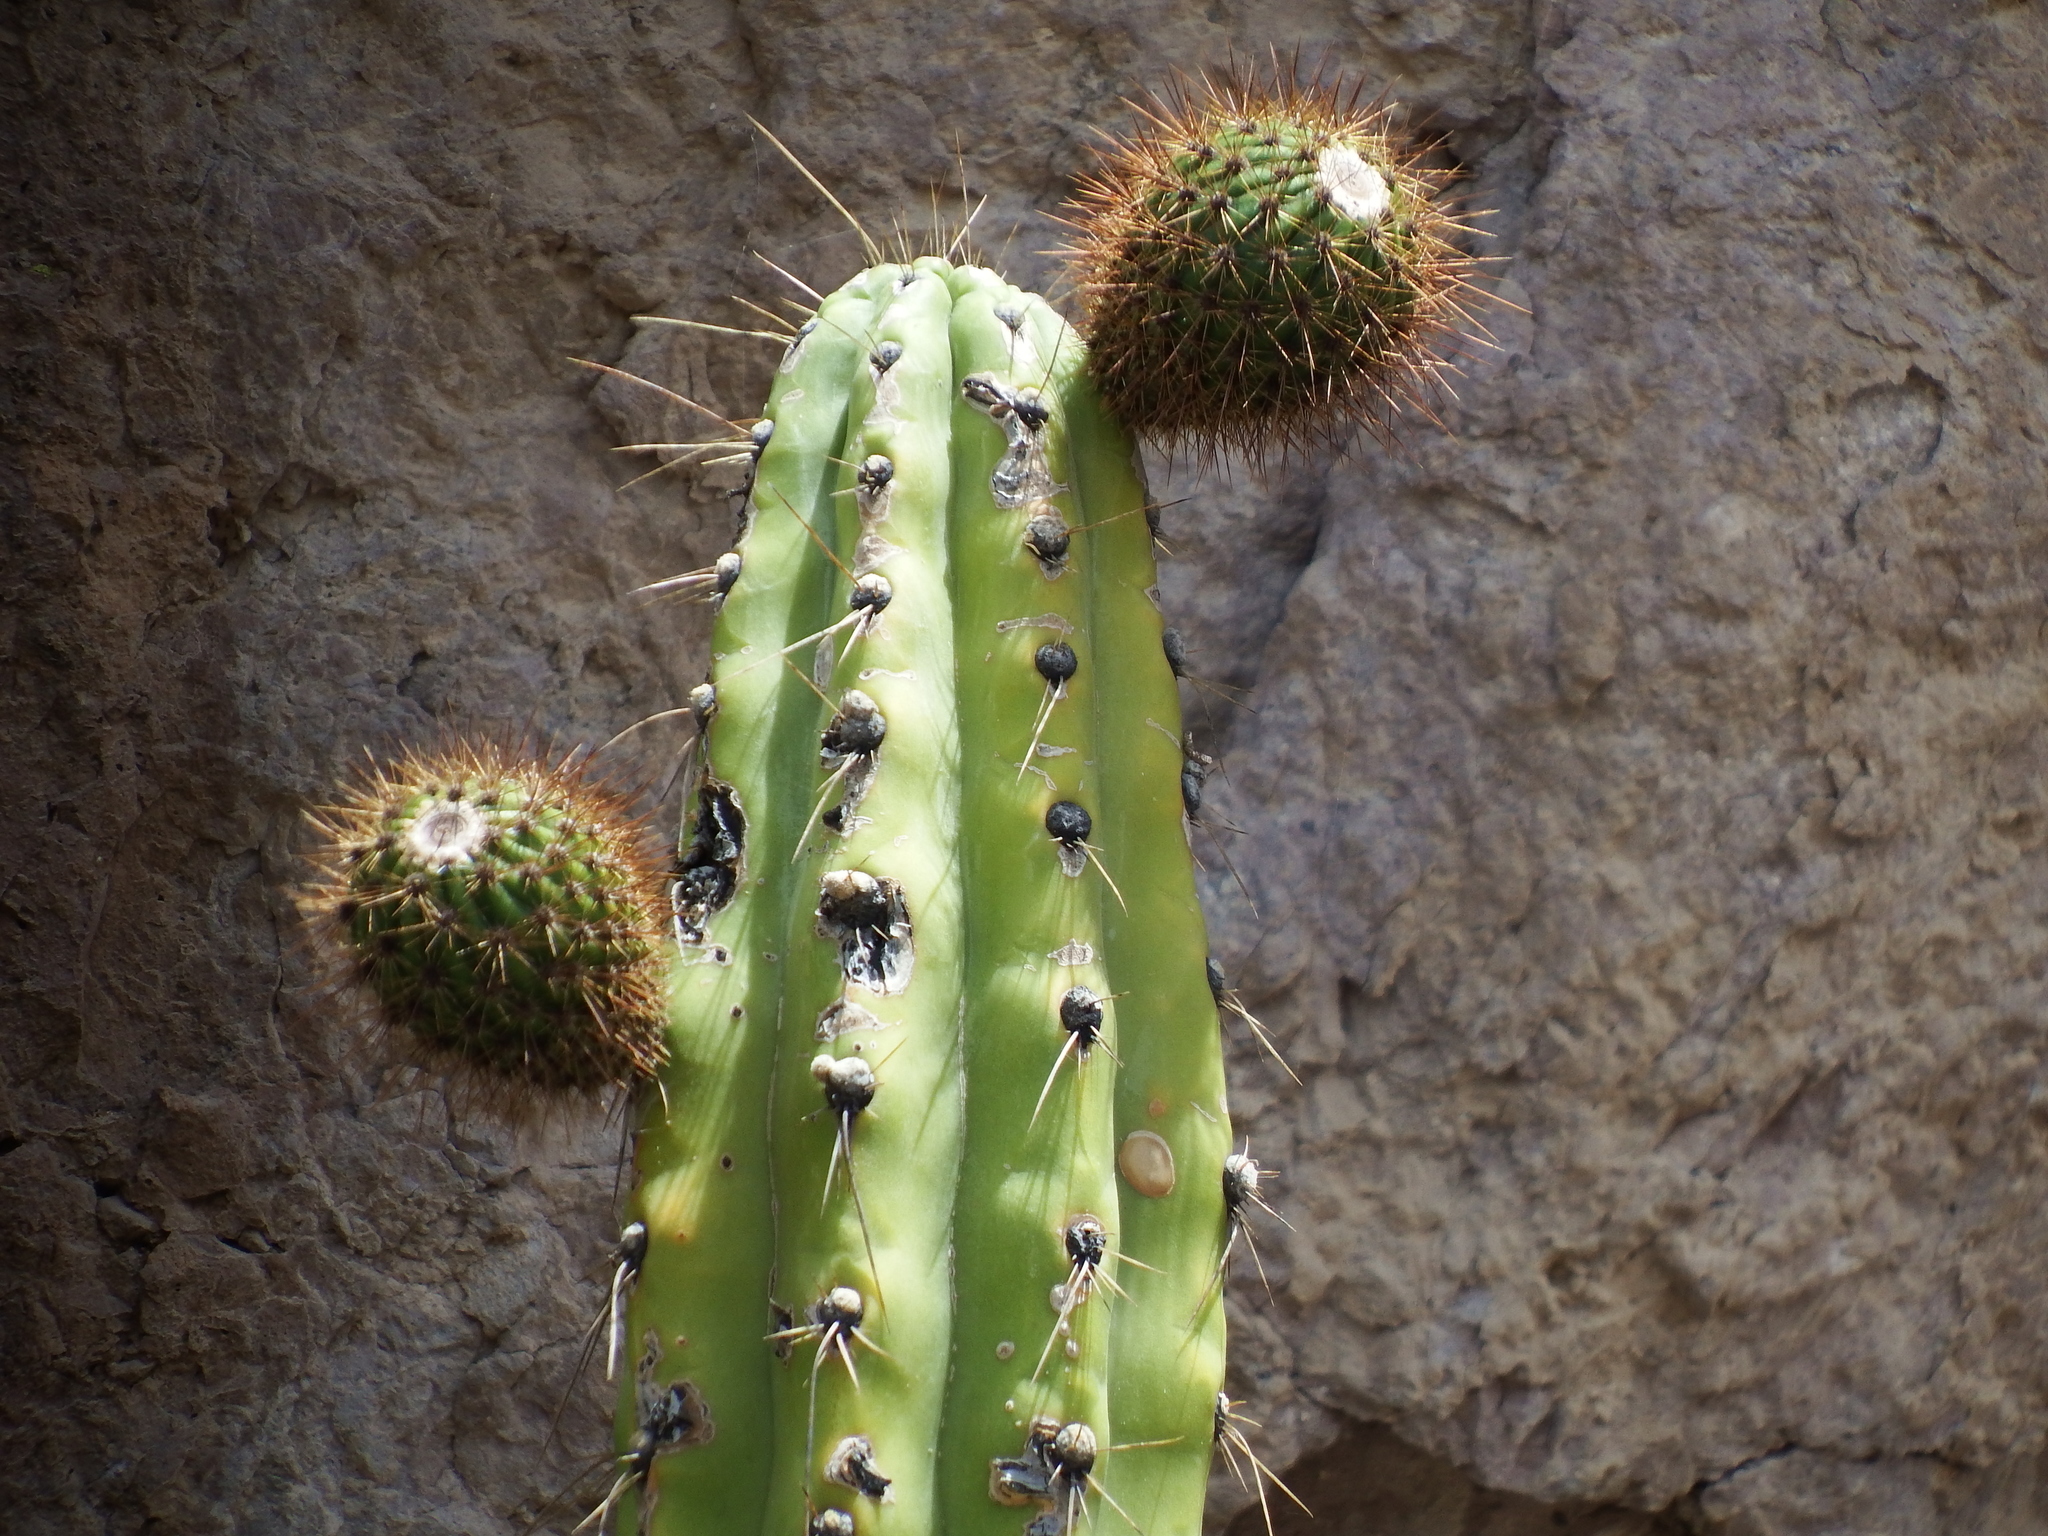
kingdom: Plantae
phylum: Tracheophyta
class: Magnoliopsida
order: Caryophyllales
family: Cactaceae
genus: Corryocactus
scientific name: Corryocactus brevistylus
